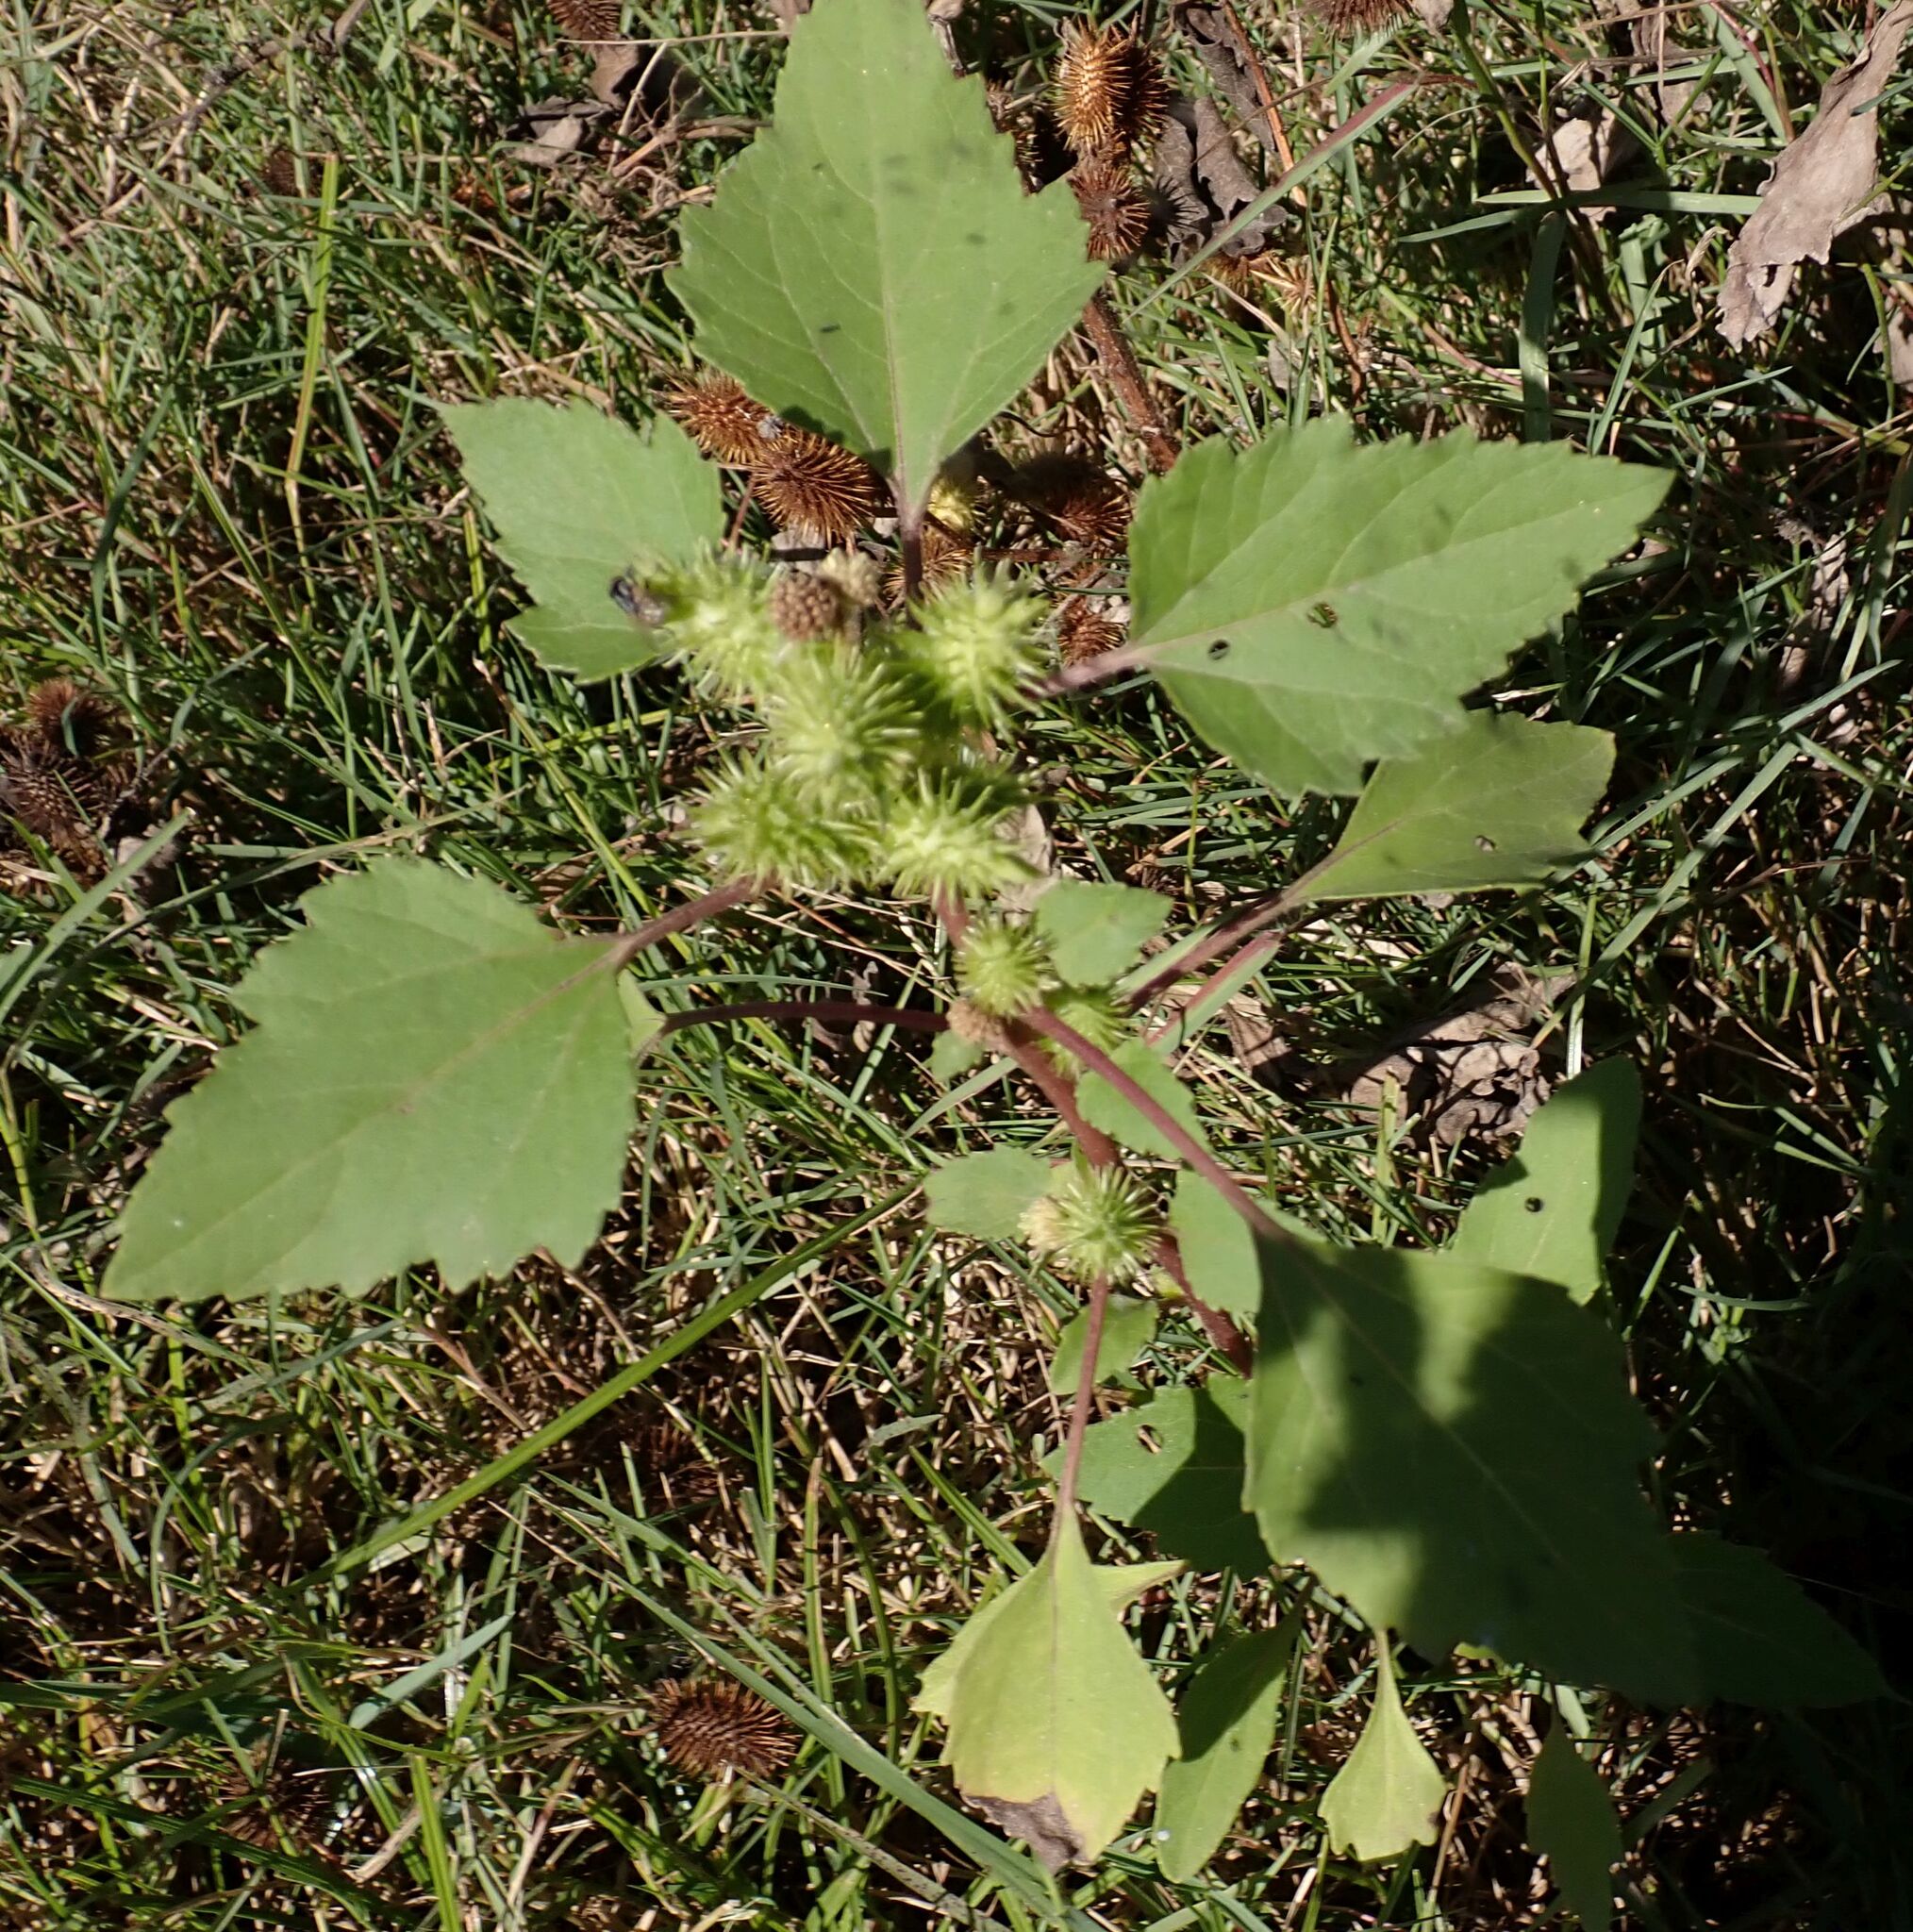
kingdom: Plantae
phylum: Tracheophyta
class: Magnoliopsida
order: Asterales
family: Asteraceae
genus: Xanthium
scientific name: Xanthium strumarium
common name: Rough cocklebur
